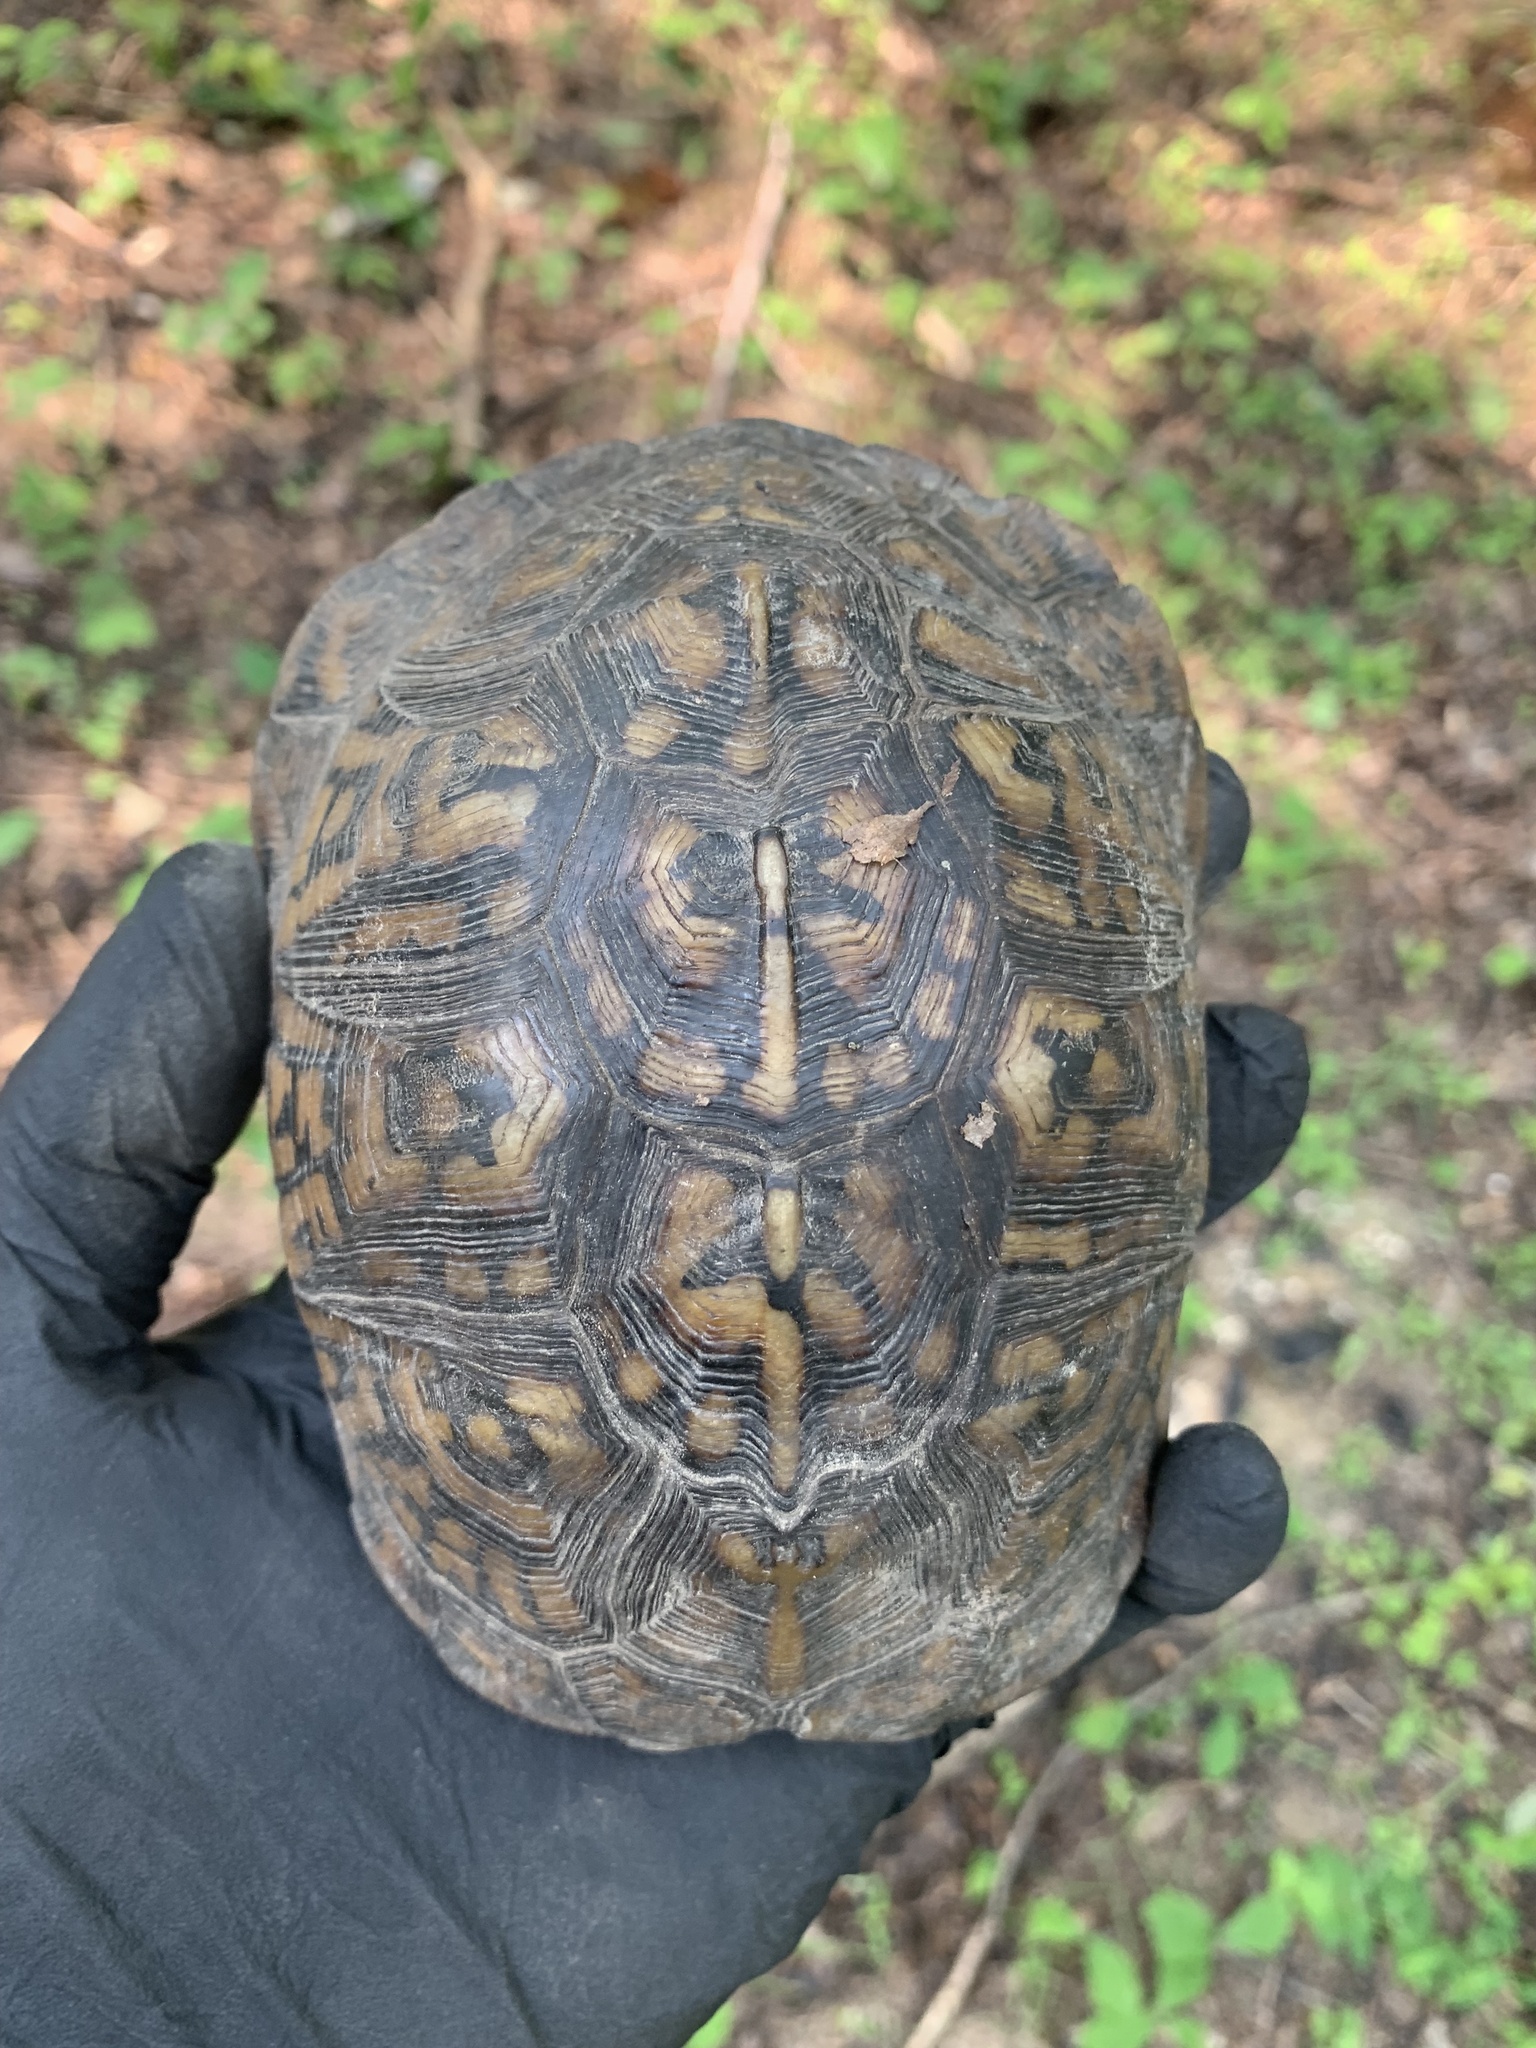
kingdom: Animalia
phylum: Chordata
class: Testudines
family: Emydidae
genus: Terrapene
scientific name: Terrapene carolina
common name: Common box turtle
